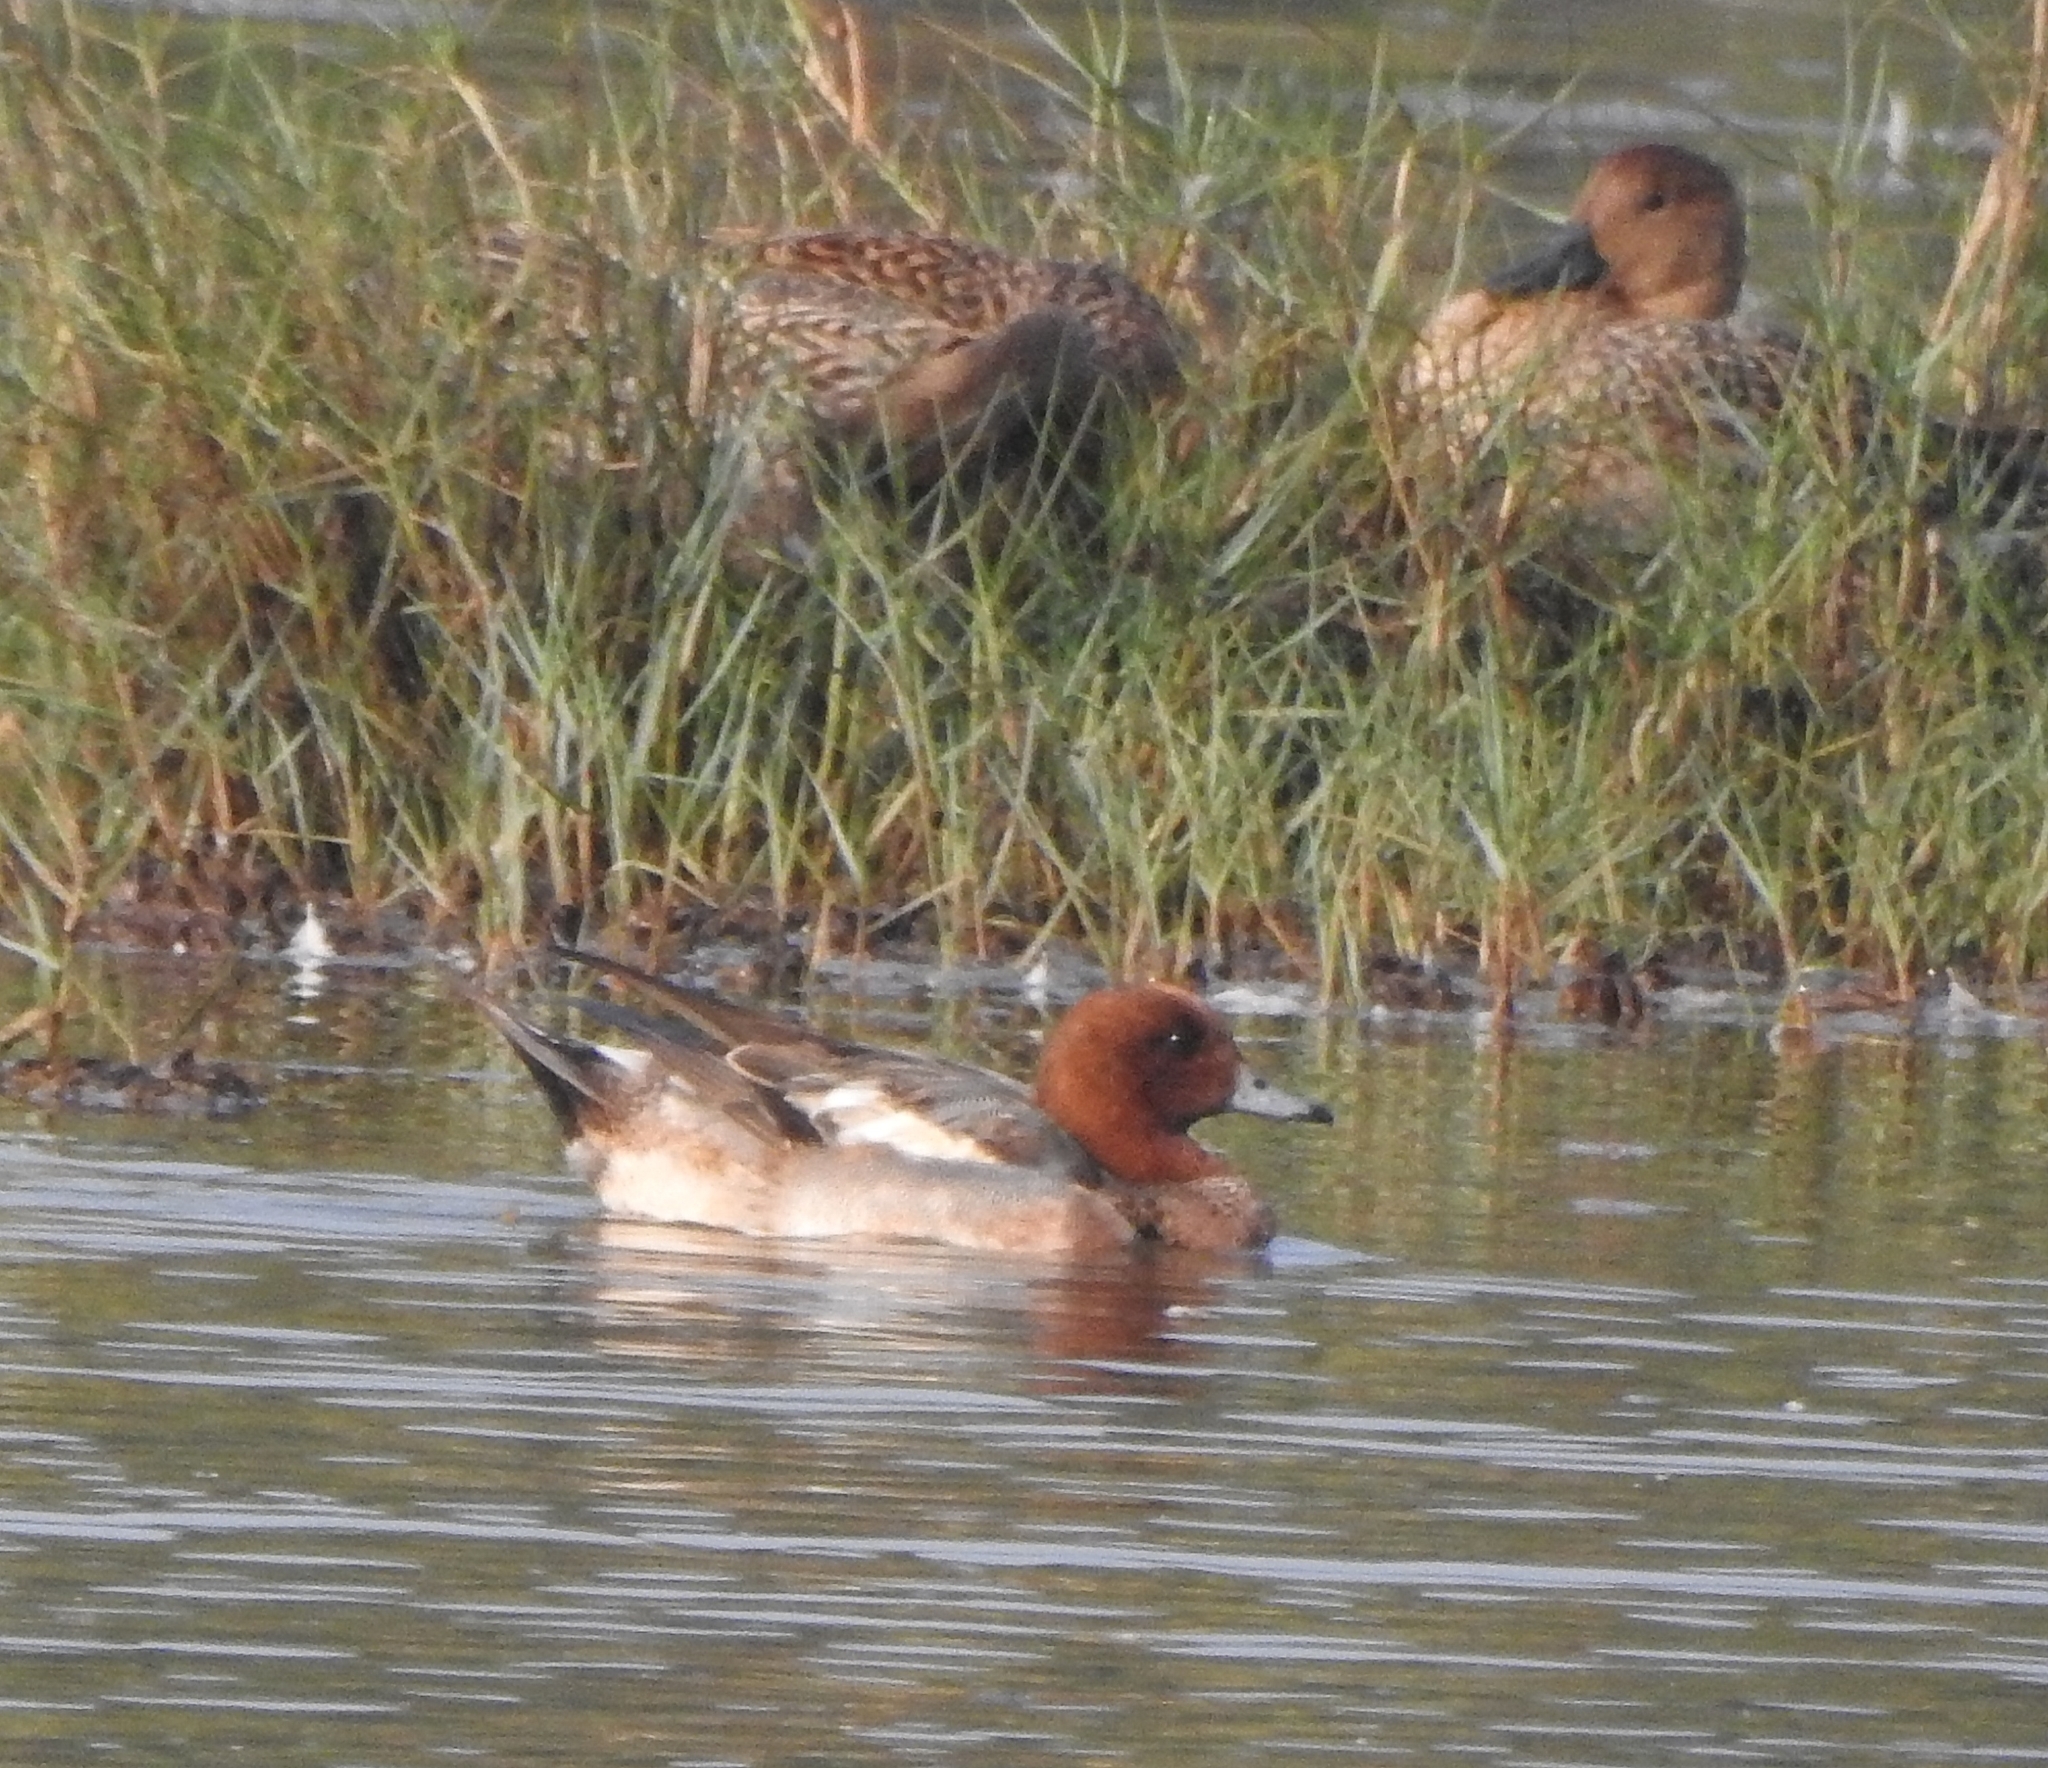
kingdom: Animalia
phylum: Chordata
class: Aves
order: Anseriformes
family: Anatidae
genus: Mareca
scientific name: Mareca penelope
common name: Eurasian wigeon
